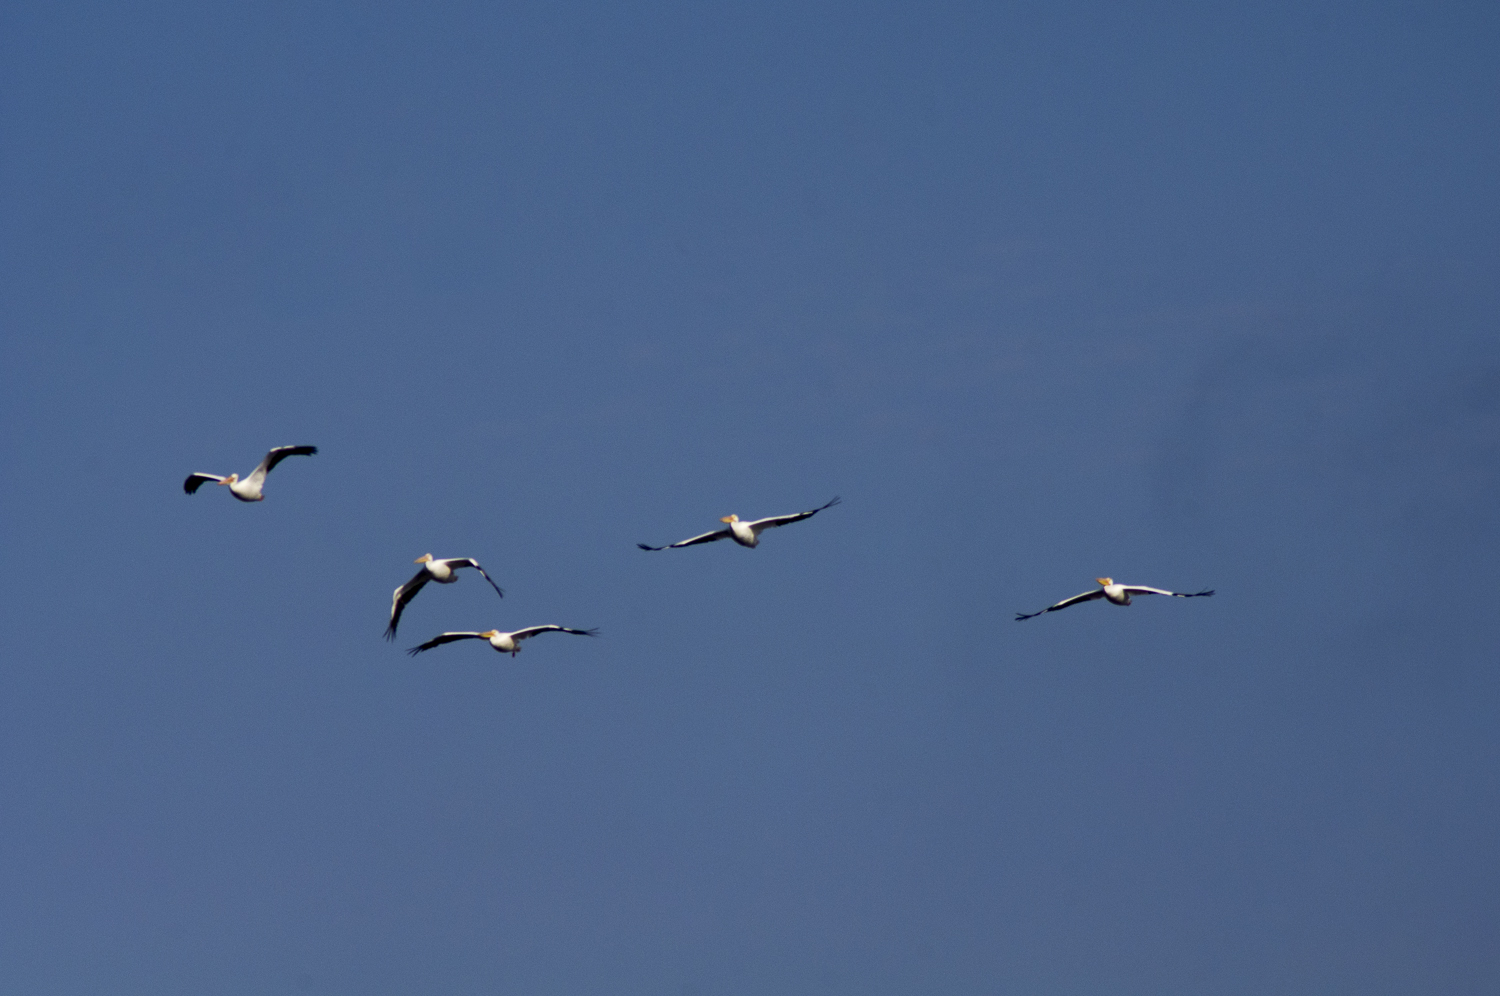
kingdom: Animalia
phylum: Chordata
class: Aves
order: Pelecaniformes
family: Pelecanidae
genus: Pelecanus
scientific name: Pelecanus erythrorhynchos
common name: American white pelican
